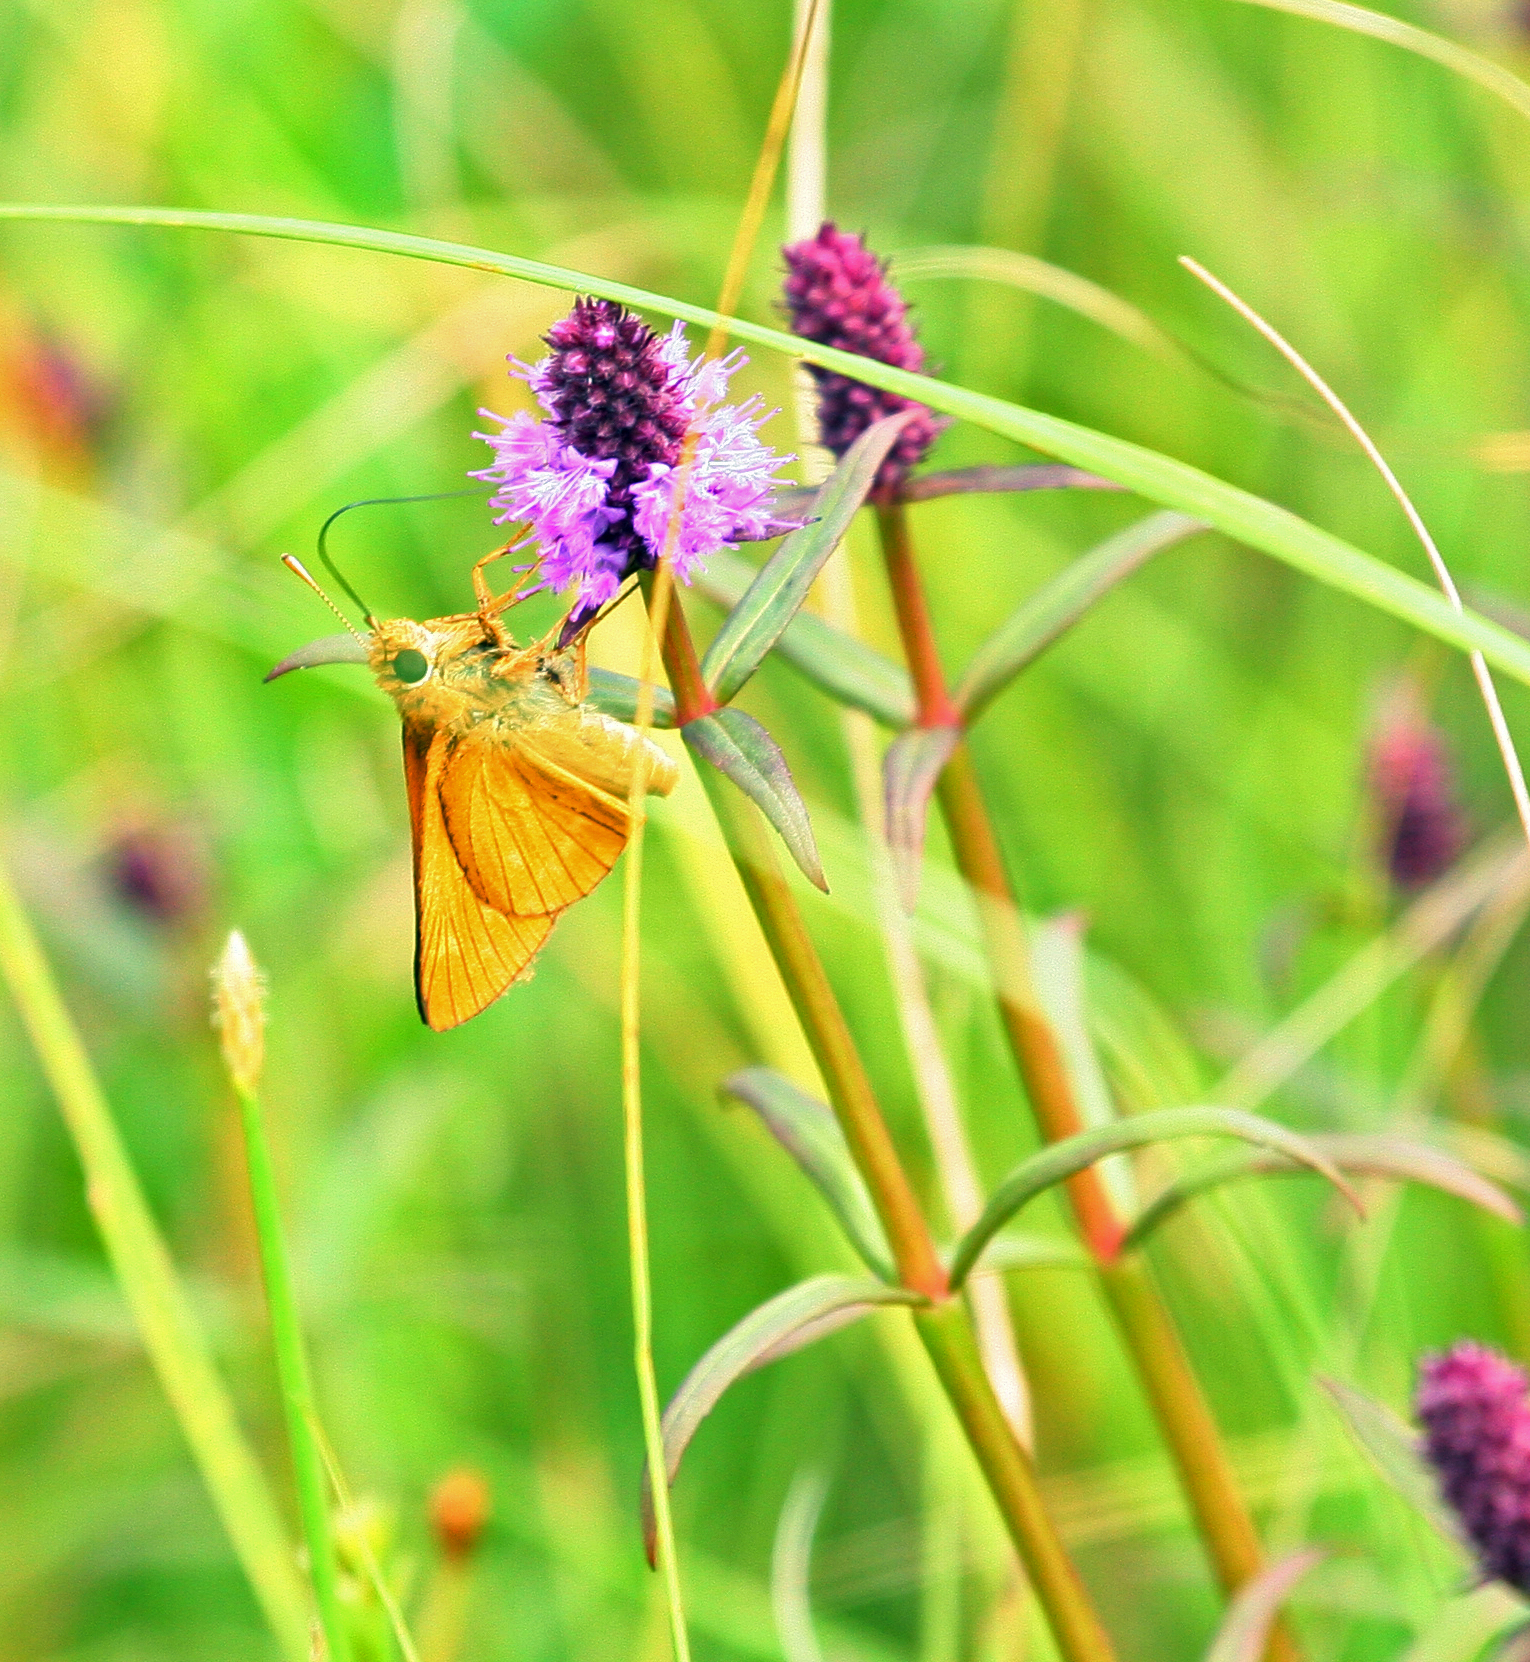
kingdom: Plantae
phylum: Tracheophyta
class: Magnoliopsida
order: Lamiales
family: Lamiaceae
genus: Pogostemon
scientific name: Pogostemon yatabeanus
